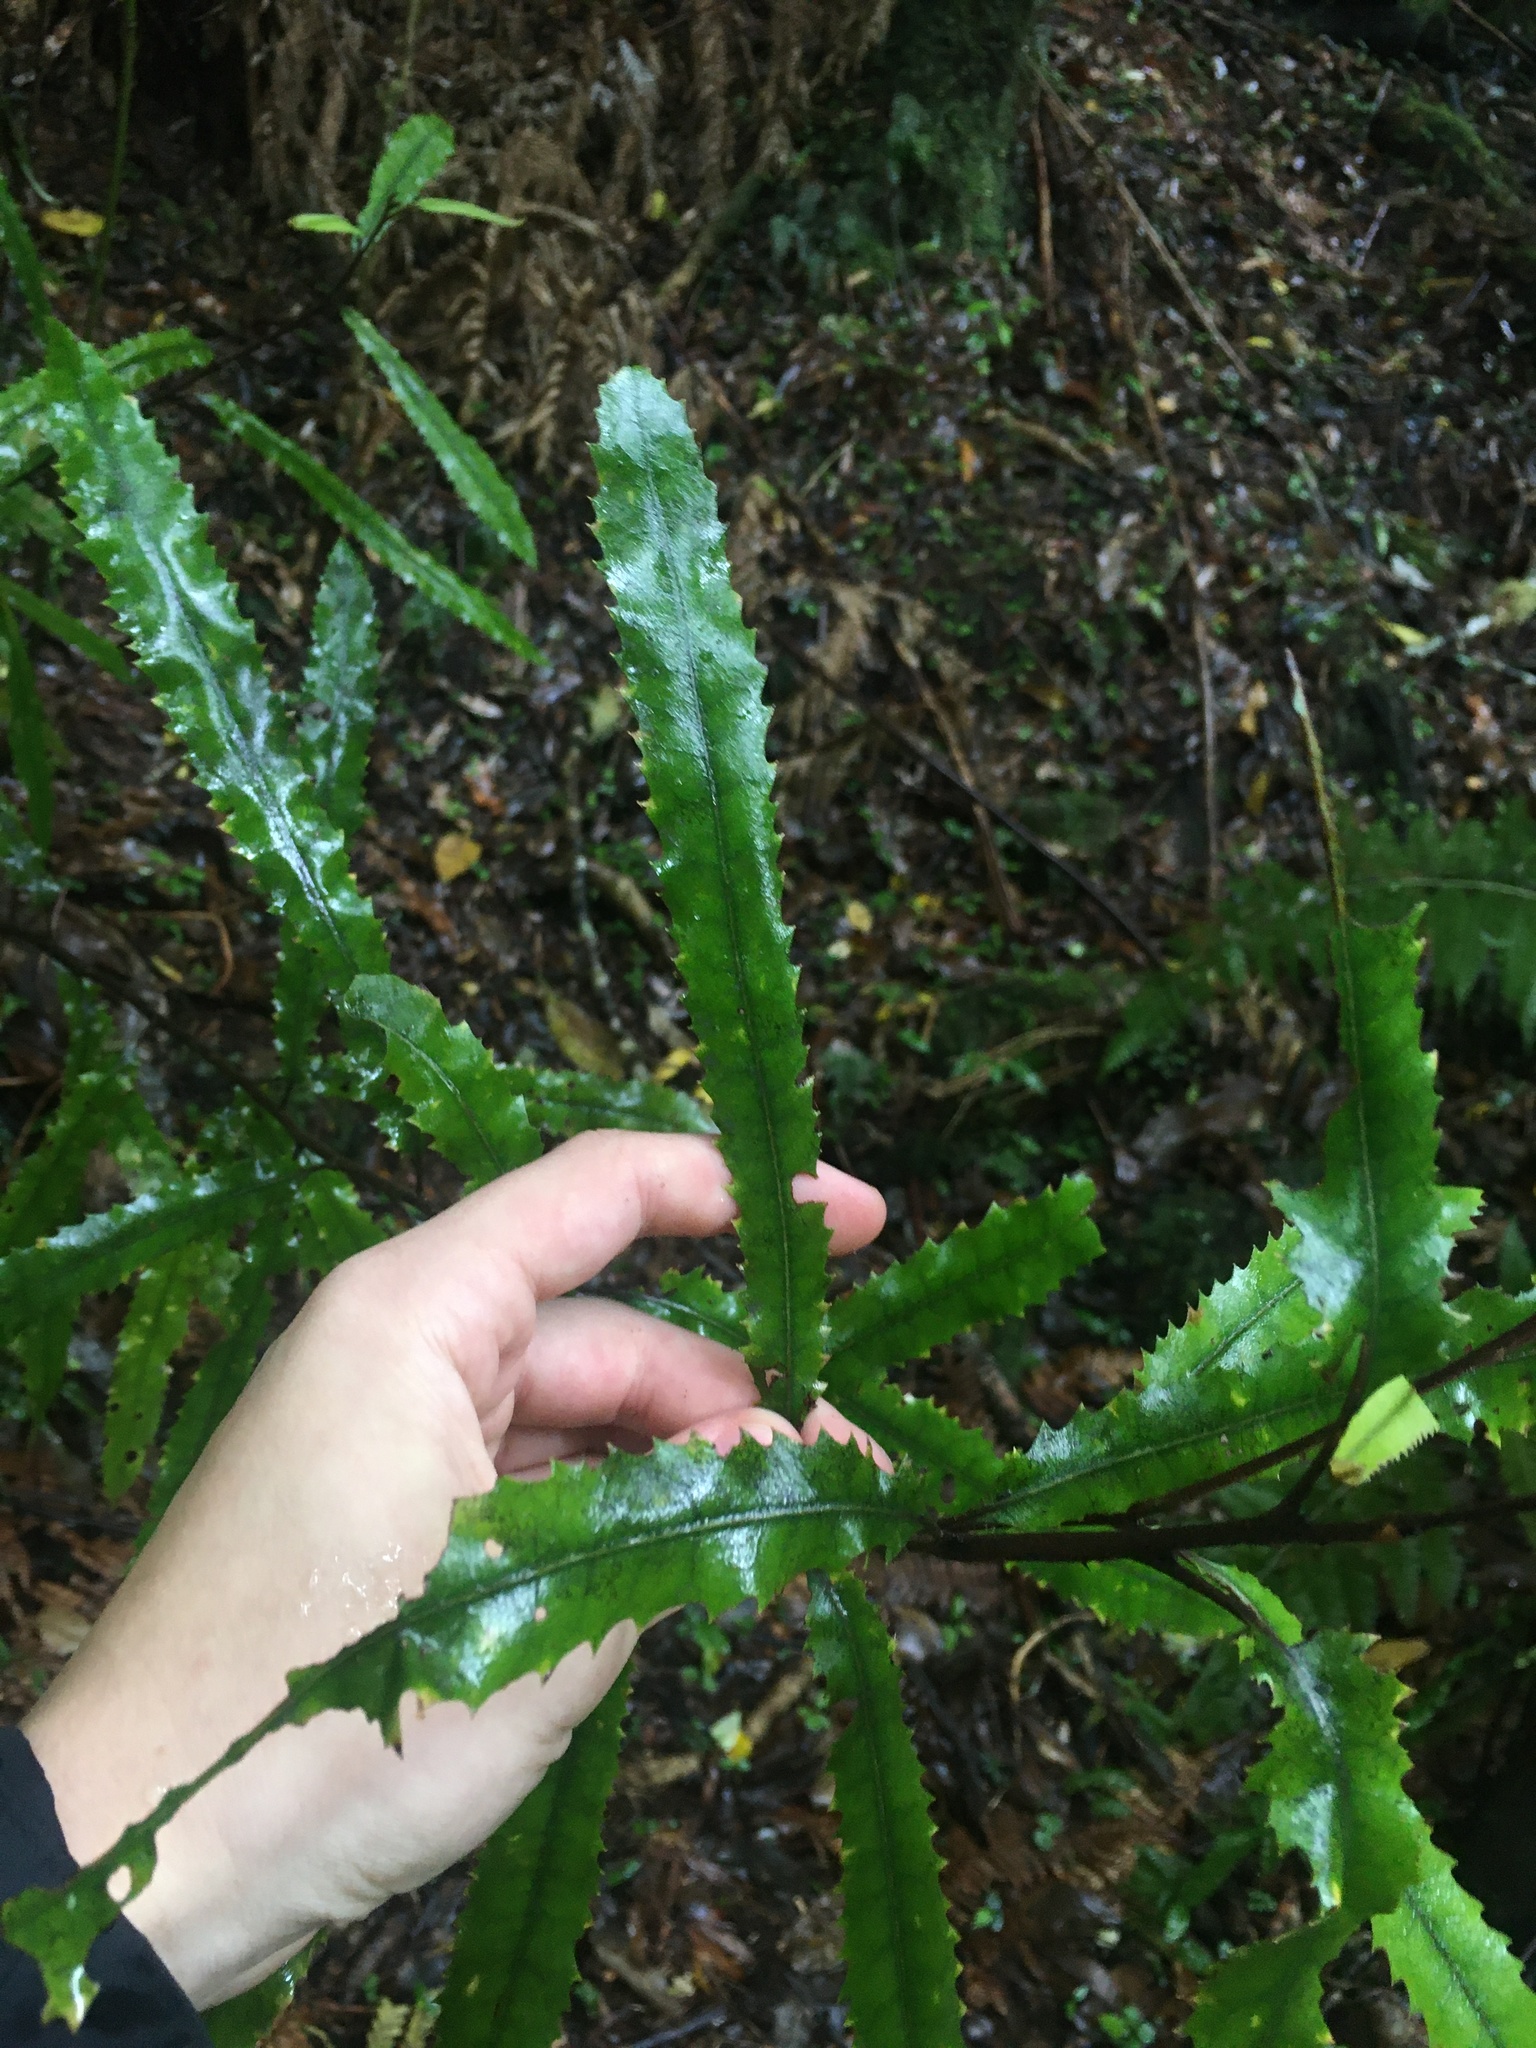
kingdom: Plantae
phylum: Tracheophyta
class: Magnoliopsida
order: Proteales
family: Proteaceae
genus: Knightia
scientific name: Knightia excelsa
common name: New zealand-honeysuckle
